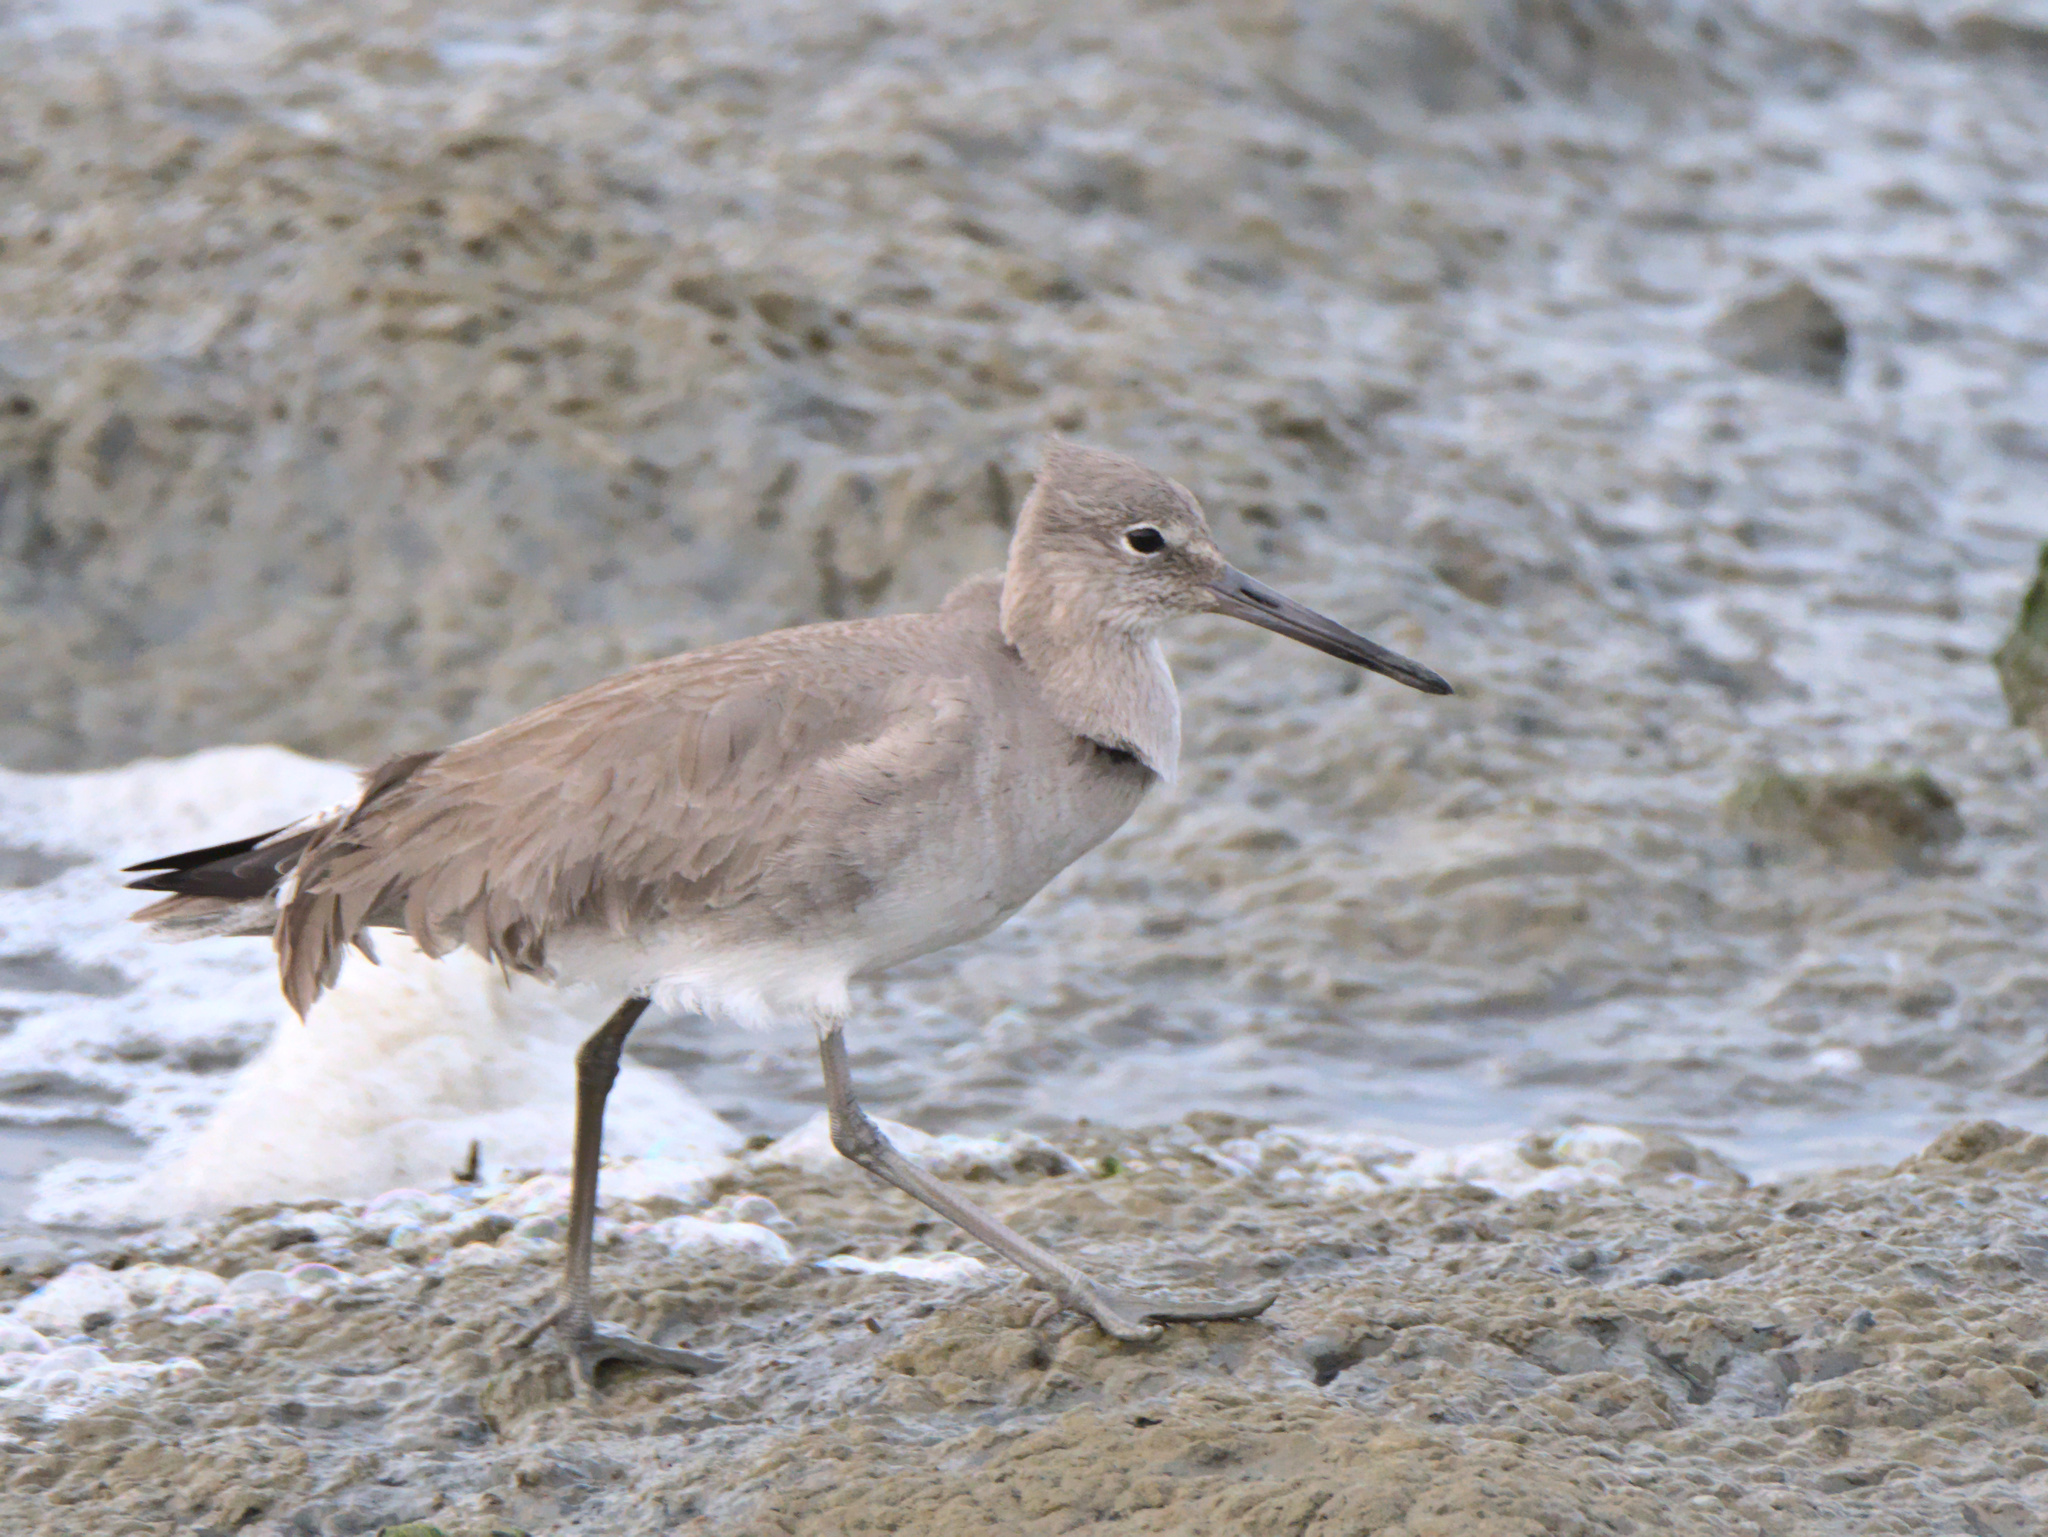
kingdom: Animalia
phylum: Chordata
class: Aves
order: Charadriiformes
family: Scolopacidae
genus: Tringa
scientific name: Tringa semipalmata
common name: Willet
